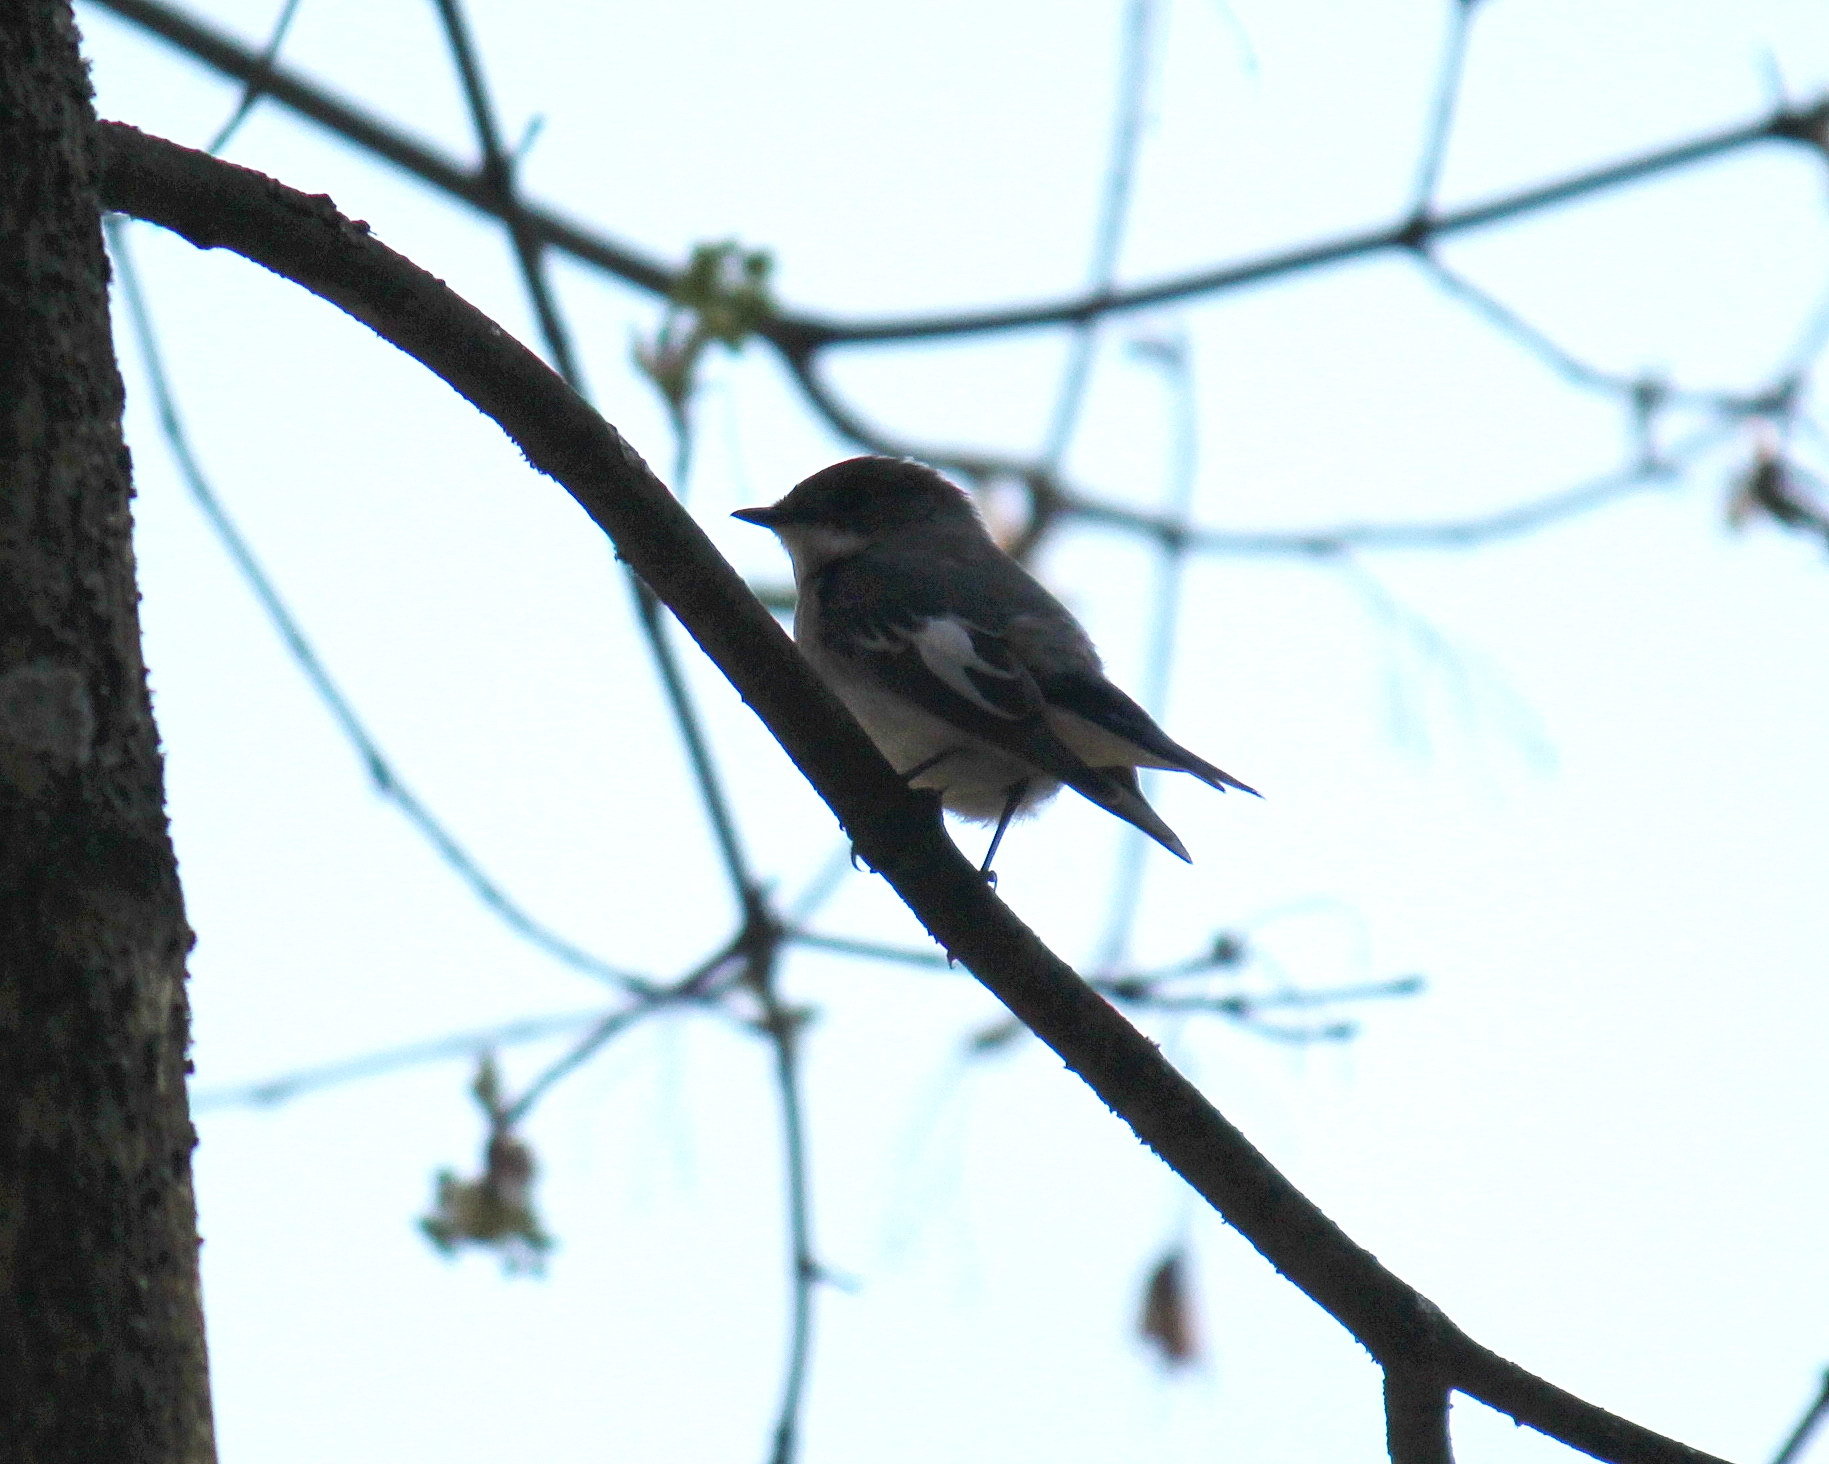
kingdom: Animalia
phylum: Chordata
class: Aves
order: Passeriformes
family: Muscicapidae
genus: Ficedula
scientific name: Ficedula hypoleuca
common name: European pied flycatcher
